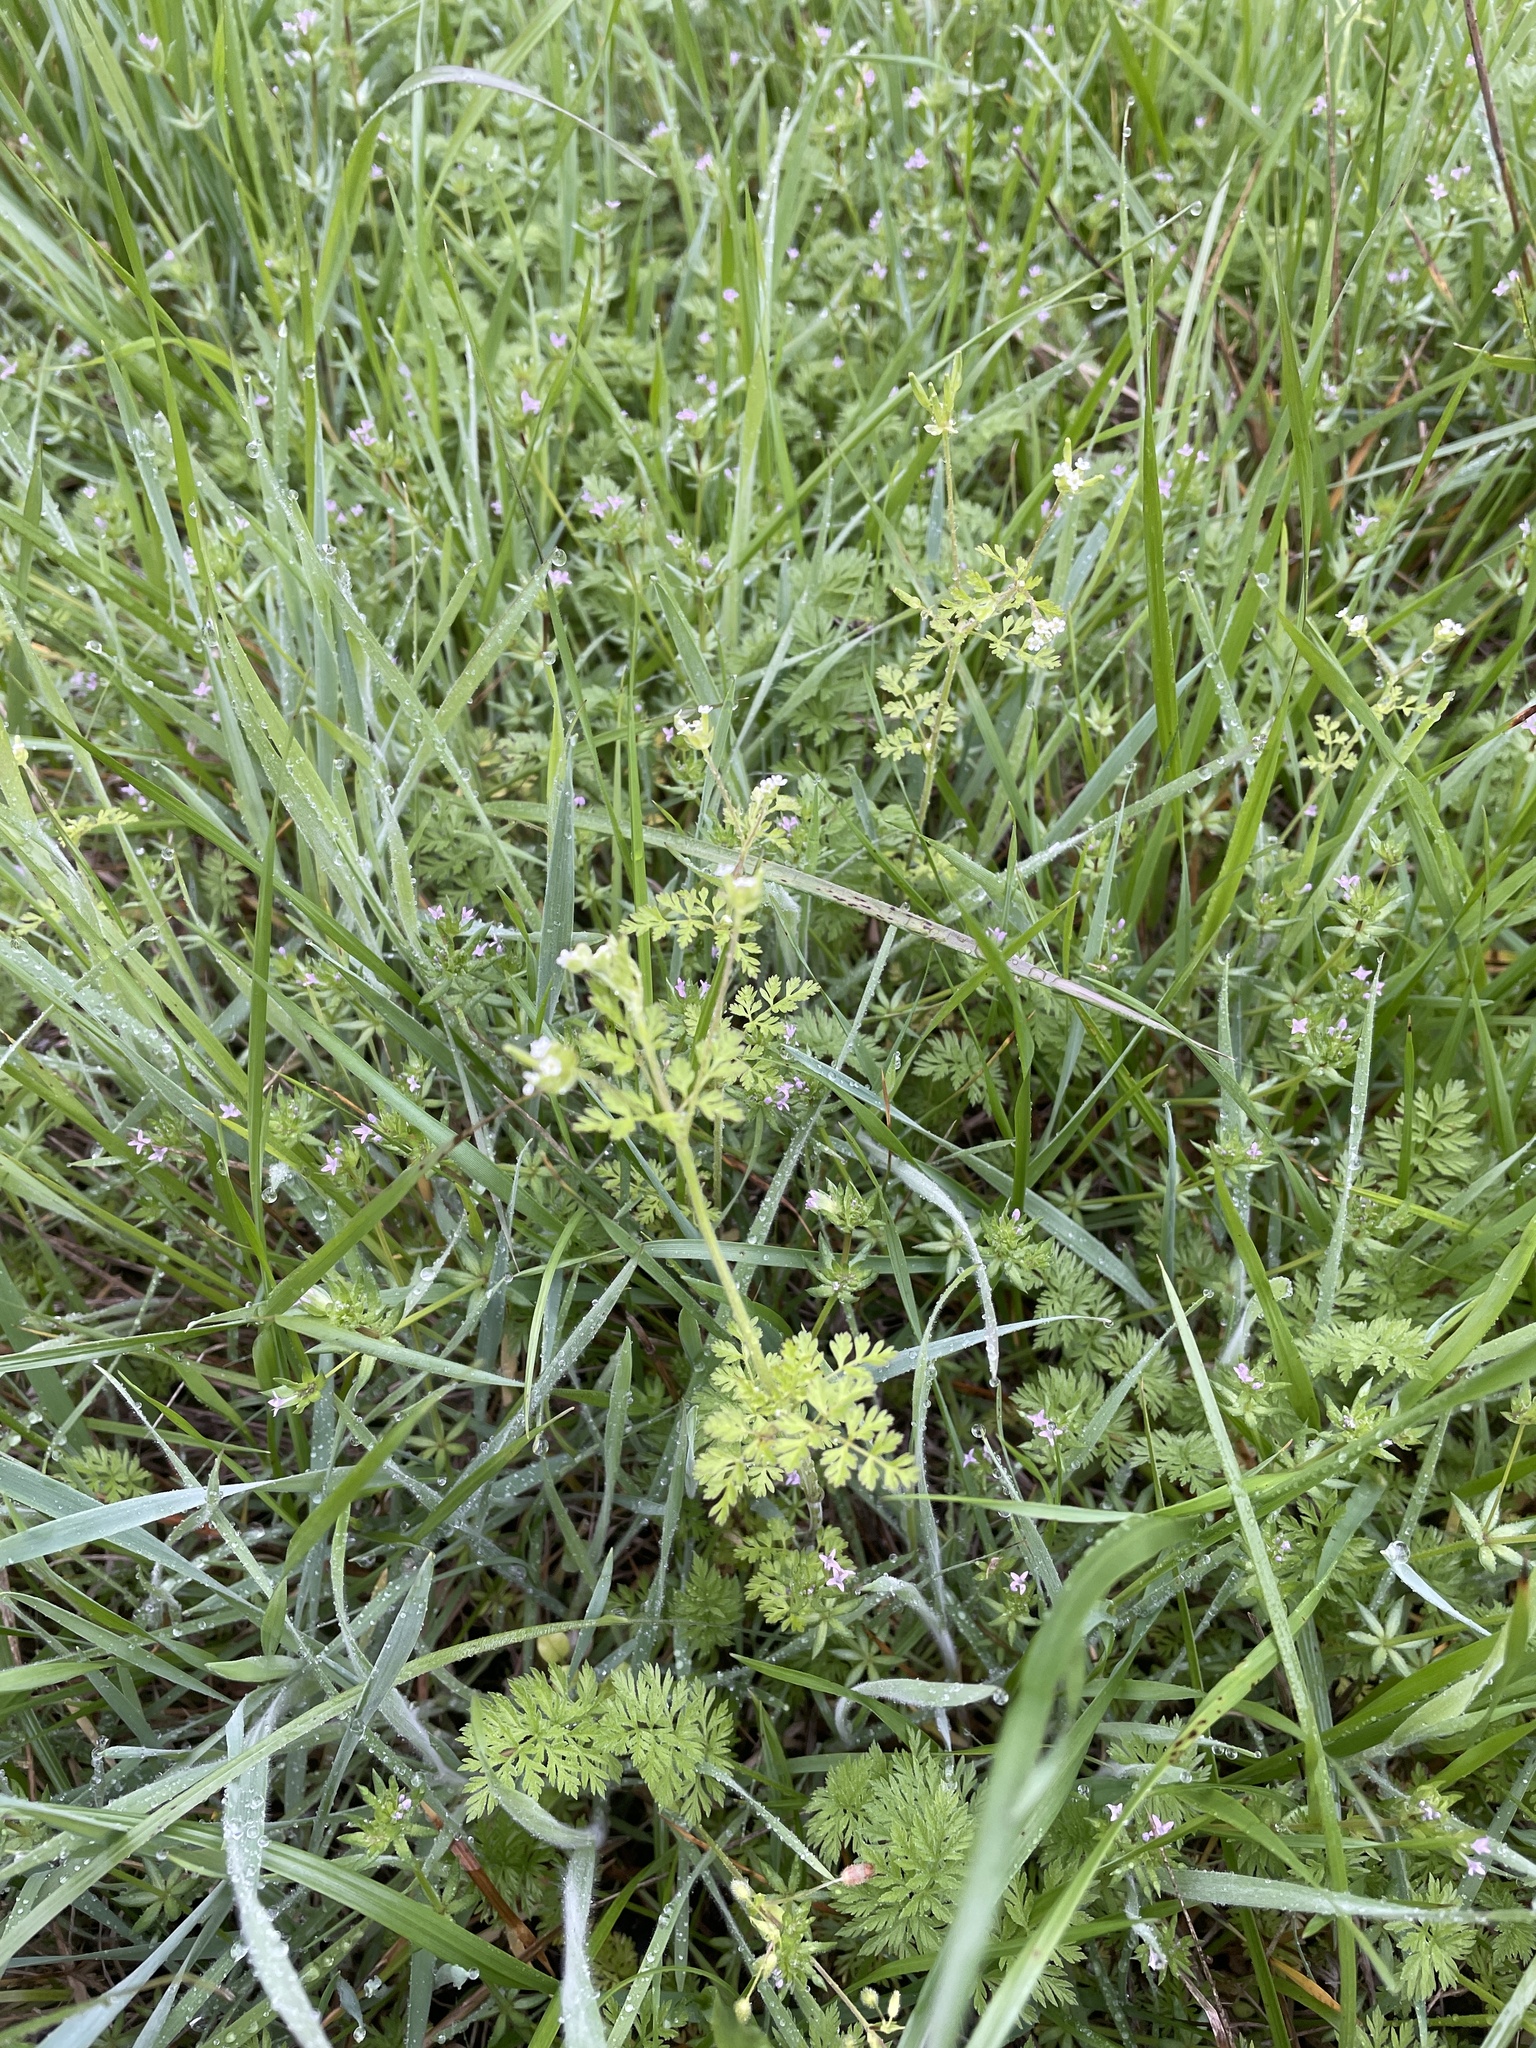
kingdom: Plantae
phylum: Tracheophyta
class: Magnoliopsida
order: Apiales
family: Apiaceae
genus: Chaerophyllum
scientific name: Chaerophyllum tainturieri
